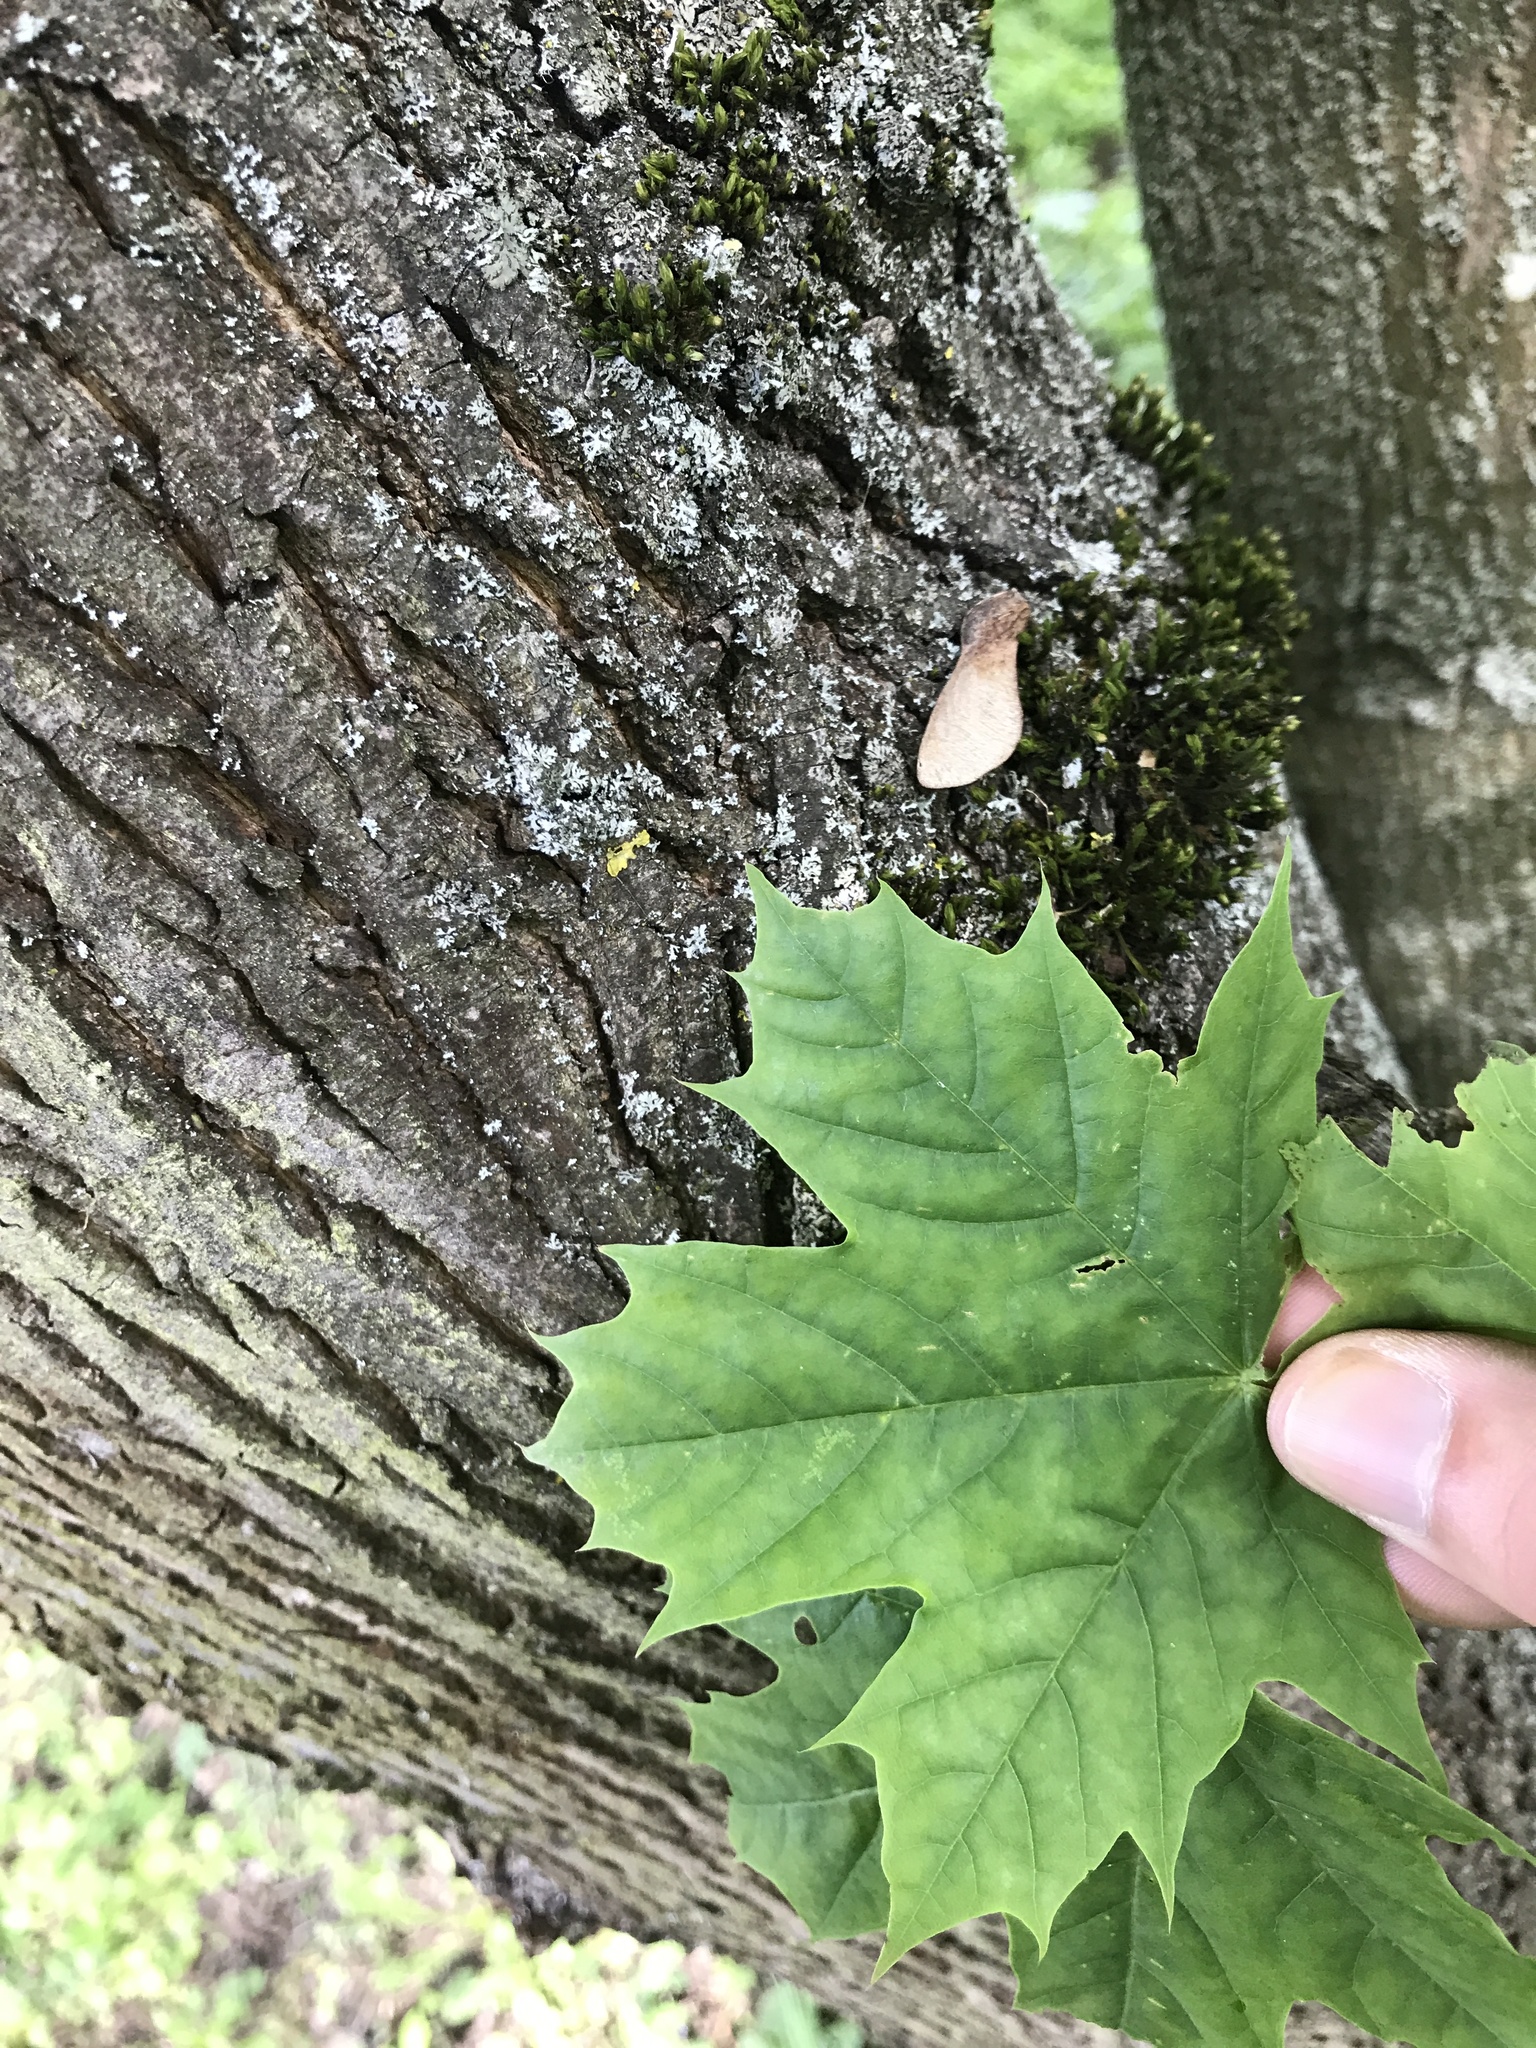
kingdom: Plantae
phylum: Tracheophyta
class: Magnoliopsida
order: Sapindales
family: Sapindaceae
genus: Acer
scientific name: Acer platanoides
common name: Norway maple
